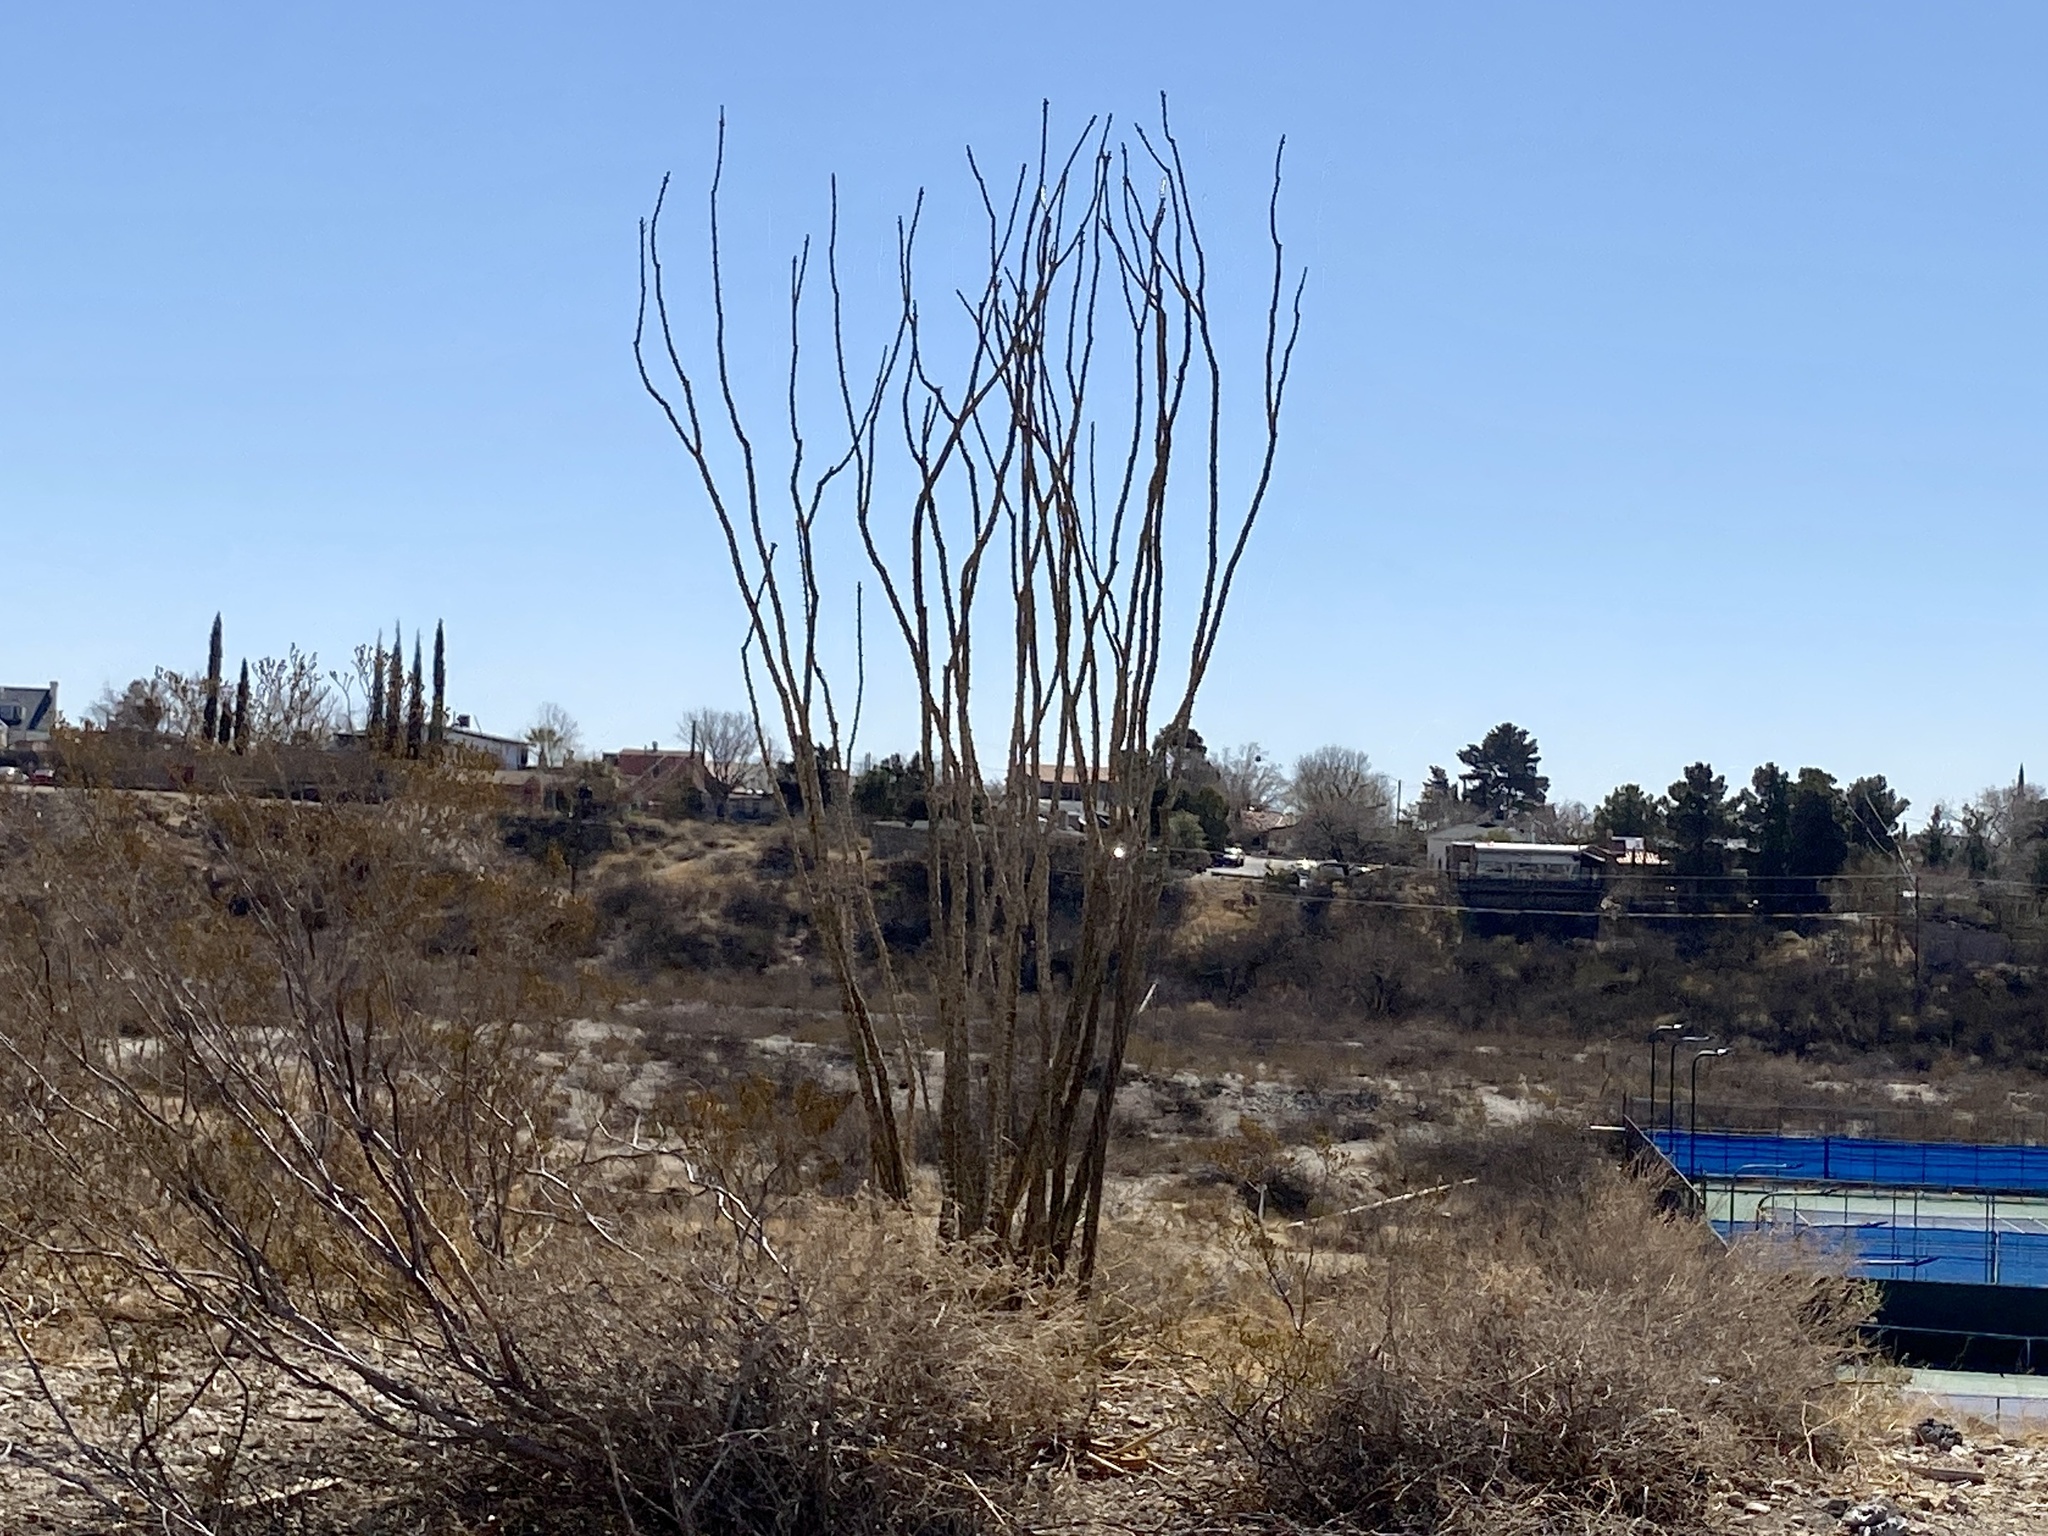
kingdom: Plantae
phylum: Tracheophyta
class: Magnoliopsida
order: Ericales
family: Fouquieriaceae
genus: Fouquieria
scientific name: Fouquieria splendens
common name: Vine-cactus
